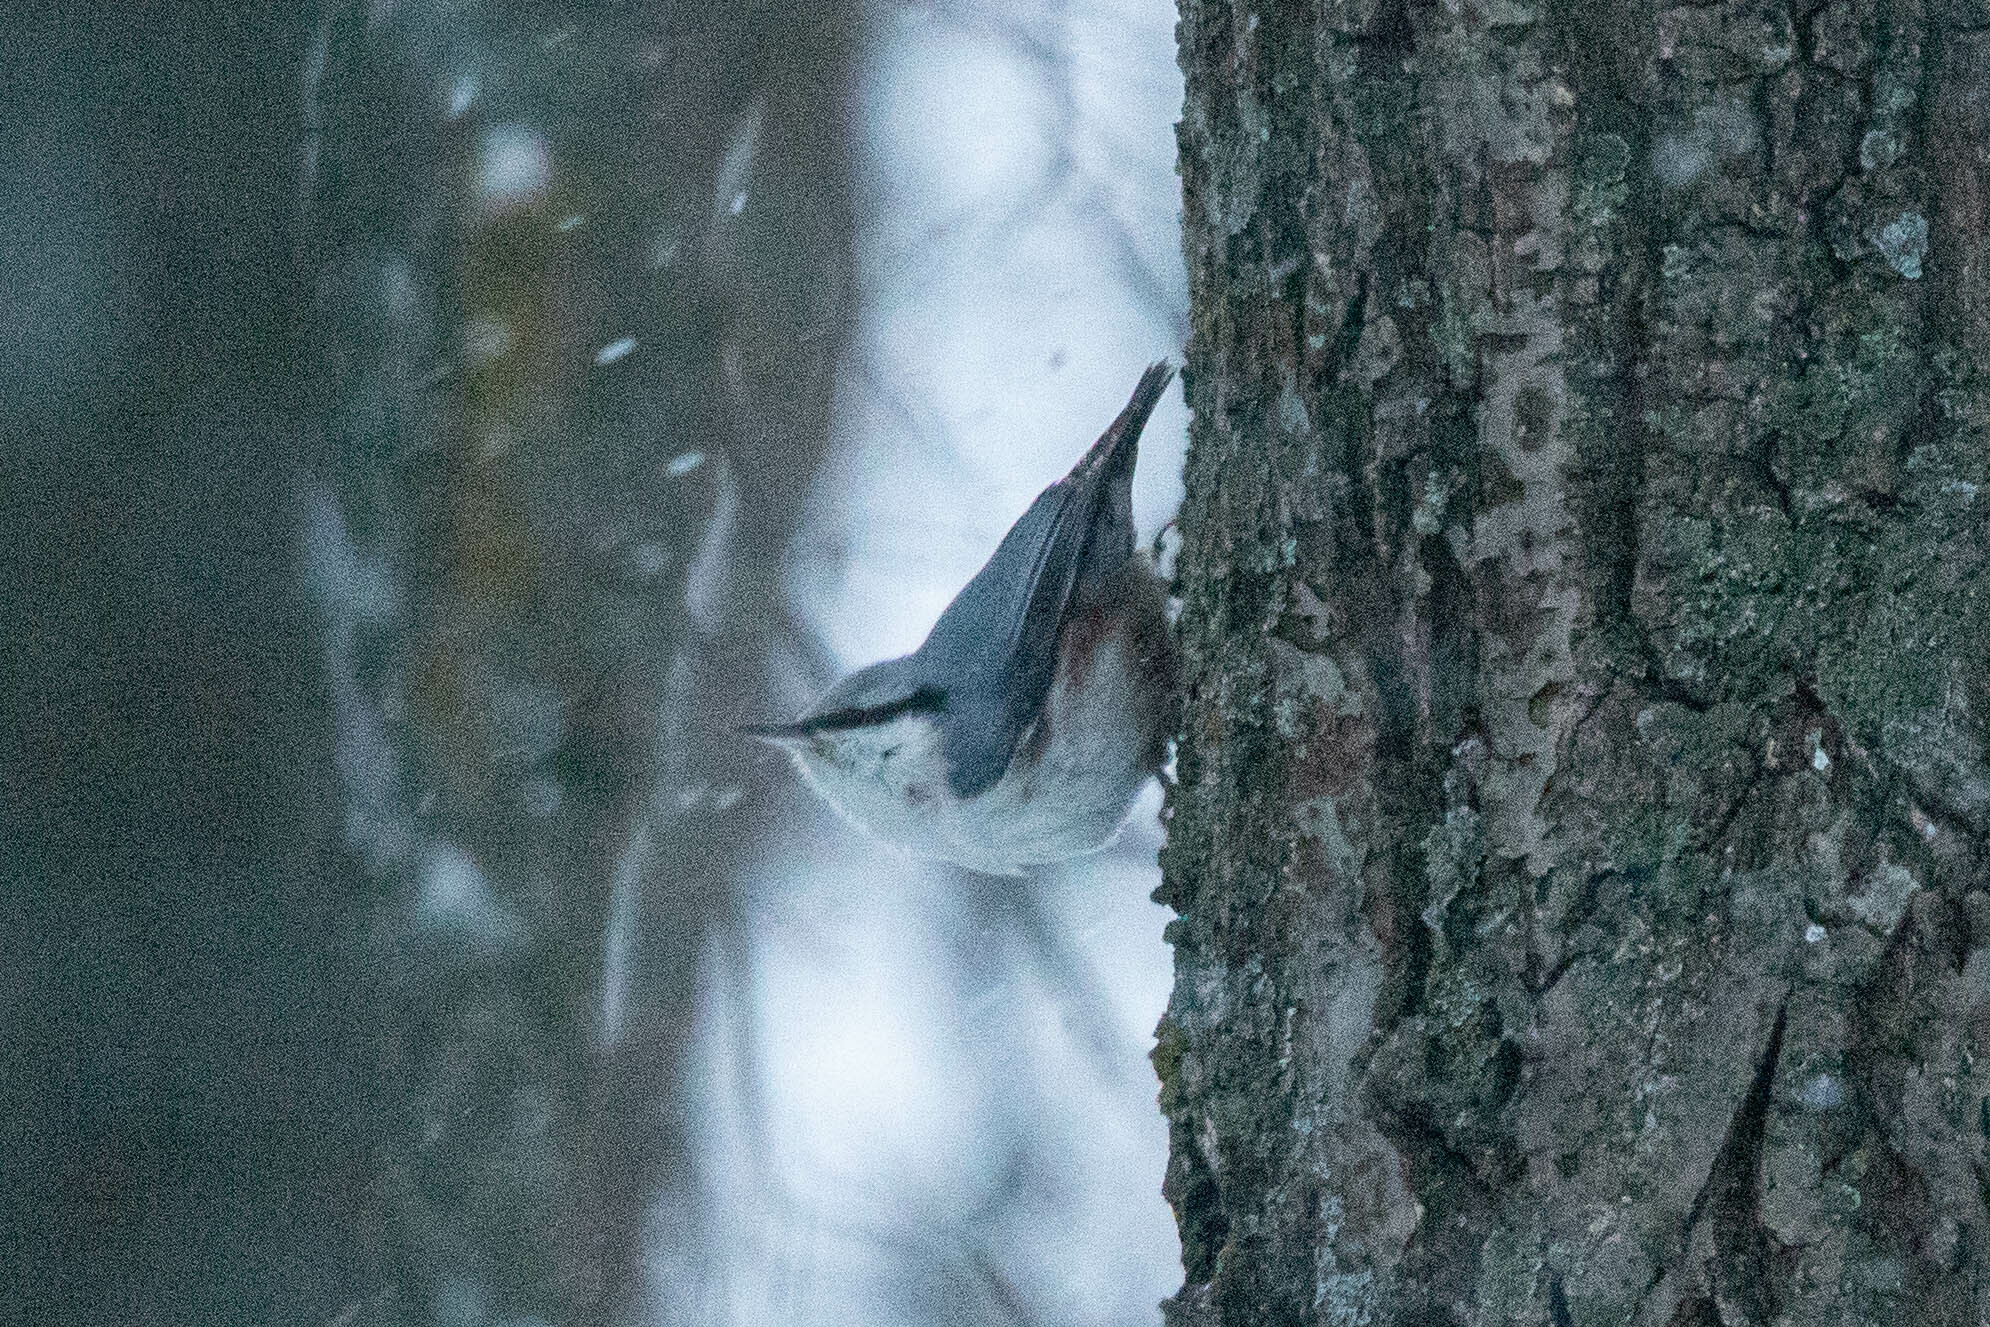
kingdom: Animalia
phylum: Chordata
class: Aves
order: Passeriformes
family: Sittidae
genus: Sitta
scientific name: Sitta europaea
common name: Eurasian nuthatch
